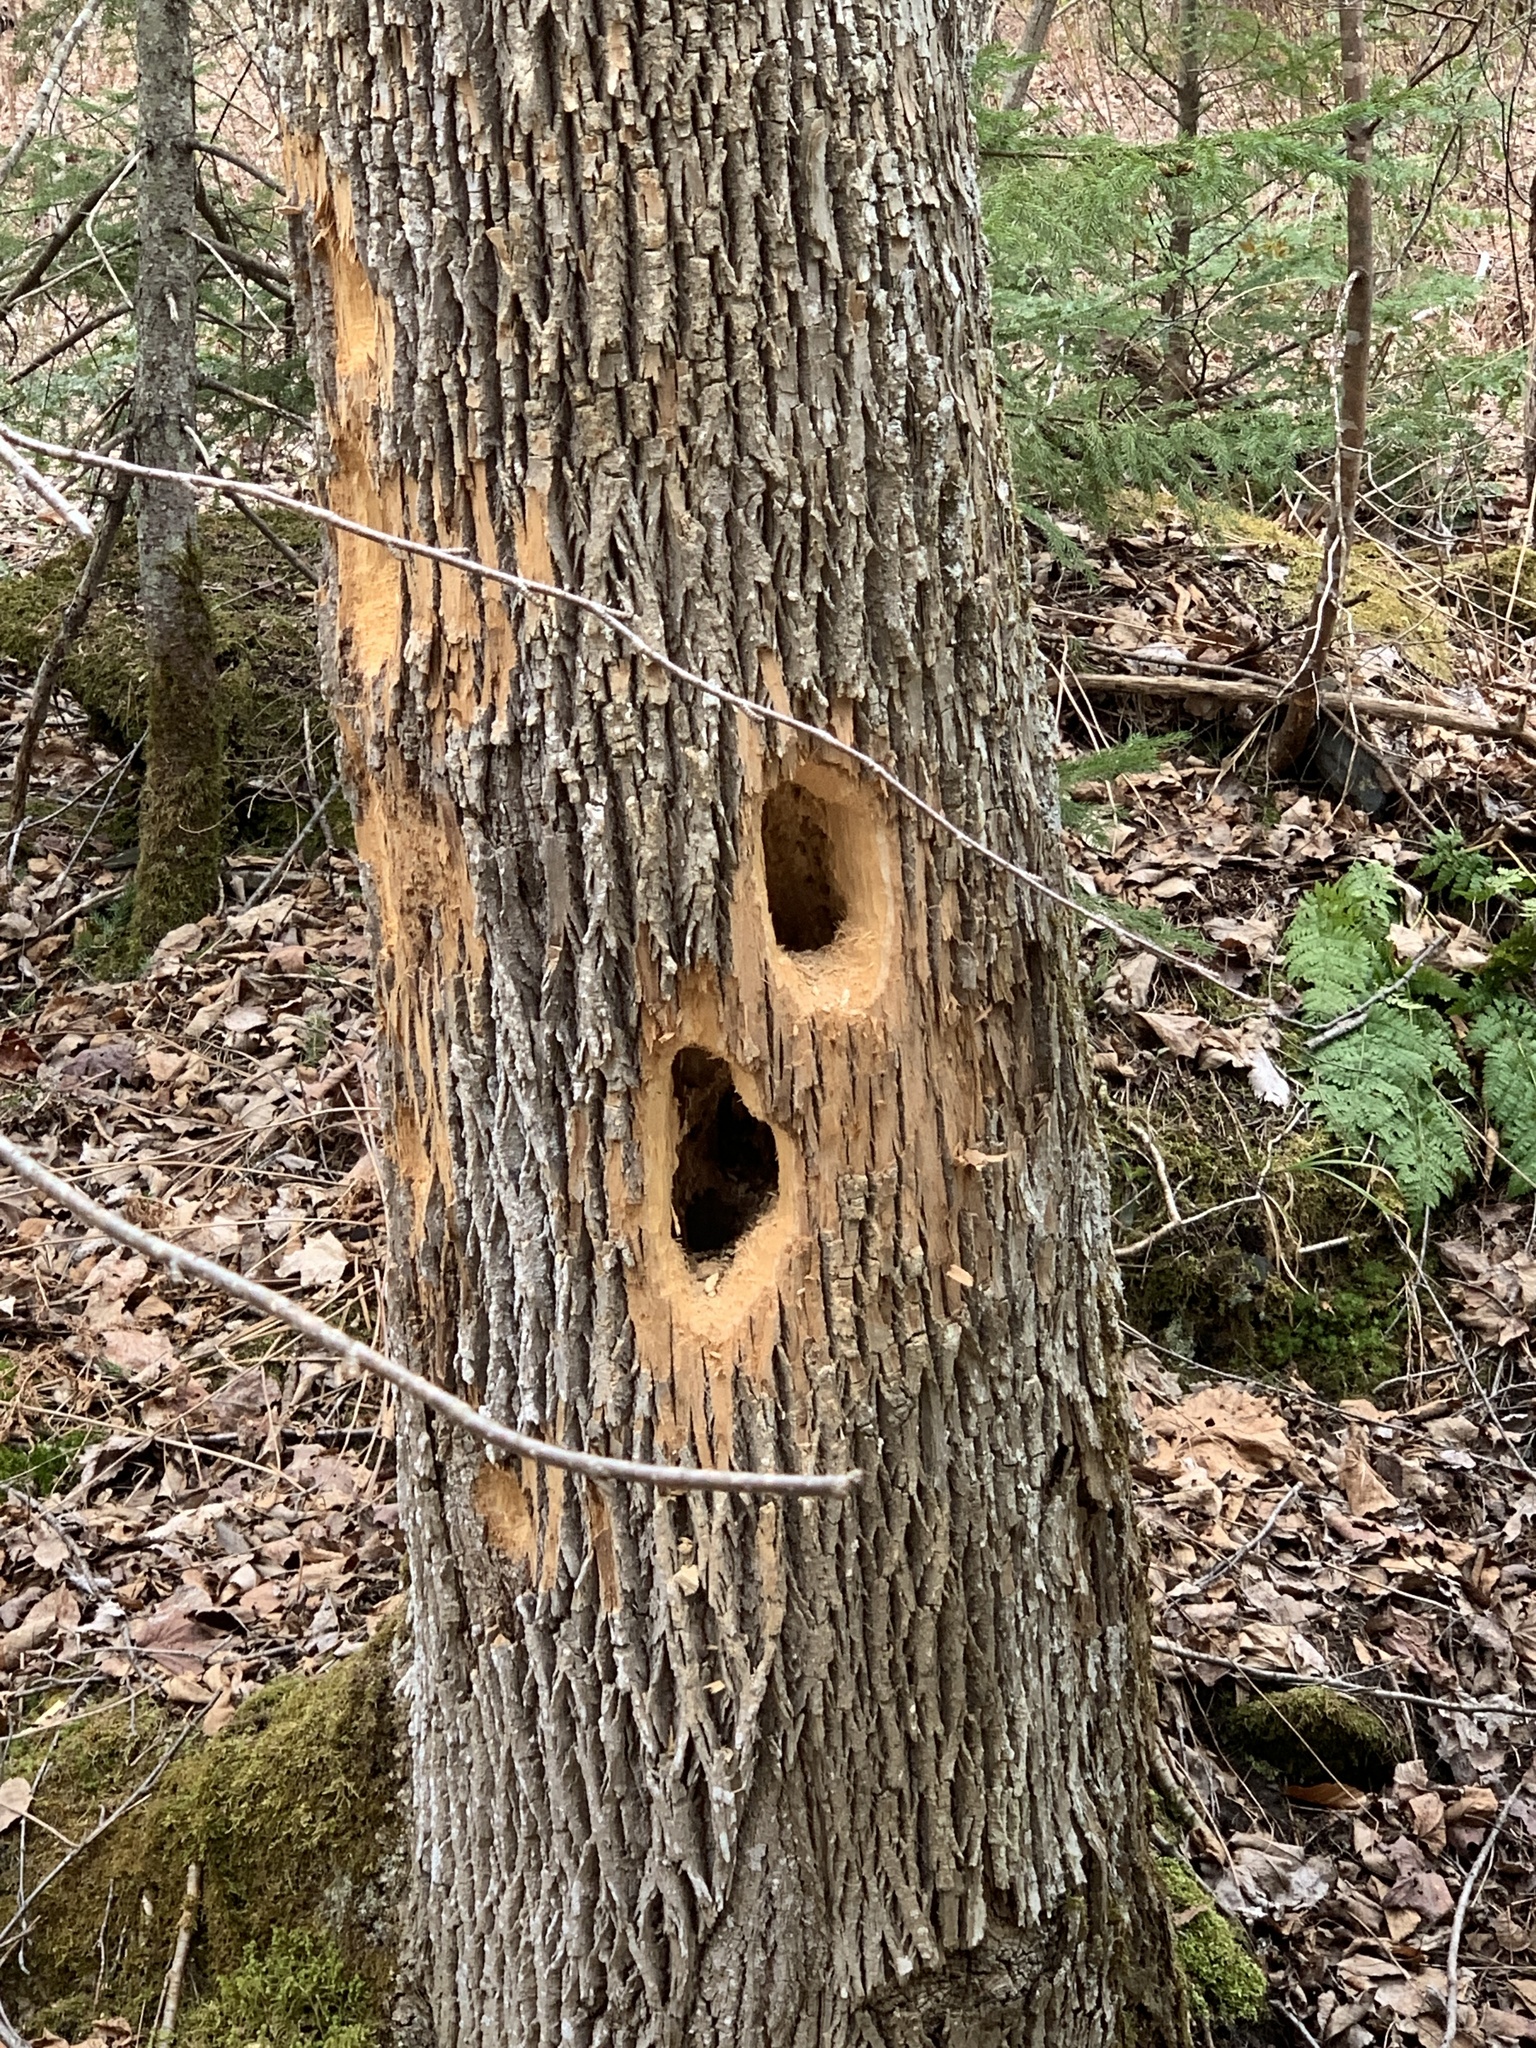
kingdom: Animalia
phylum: Chordata
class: Aves
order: Piciformes
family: Picidae
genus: Dryocopus
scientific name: Dryocopus pileatus
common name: Pileated woodpecker
